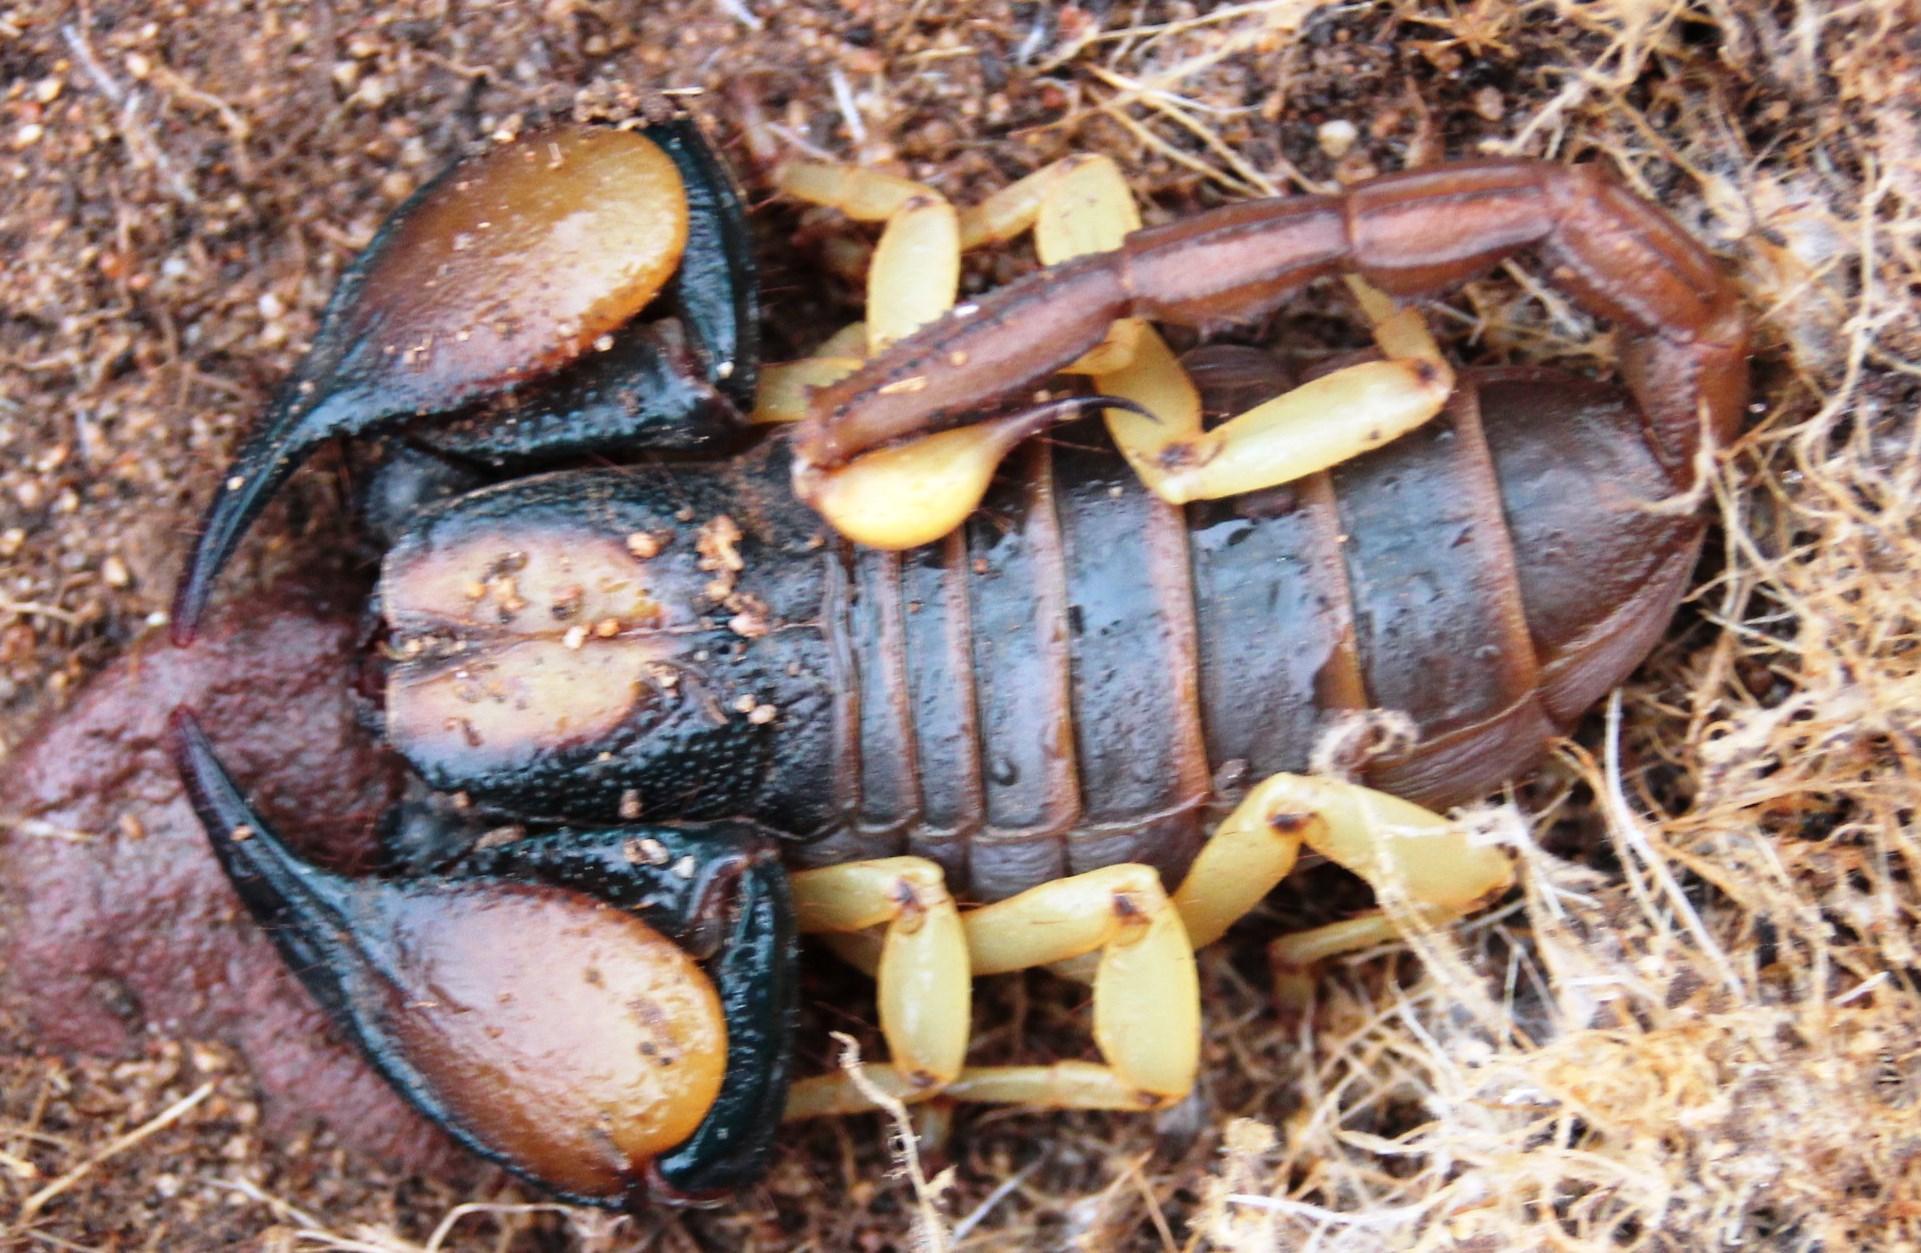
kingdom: Animalia
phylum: Arthropoda
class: Arachnida
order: Scorpiones
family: Scorpionidae
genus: Opistophthalmus
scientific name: Opistophthalmus pallipes
